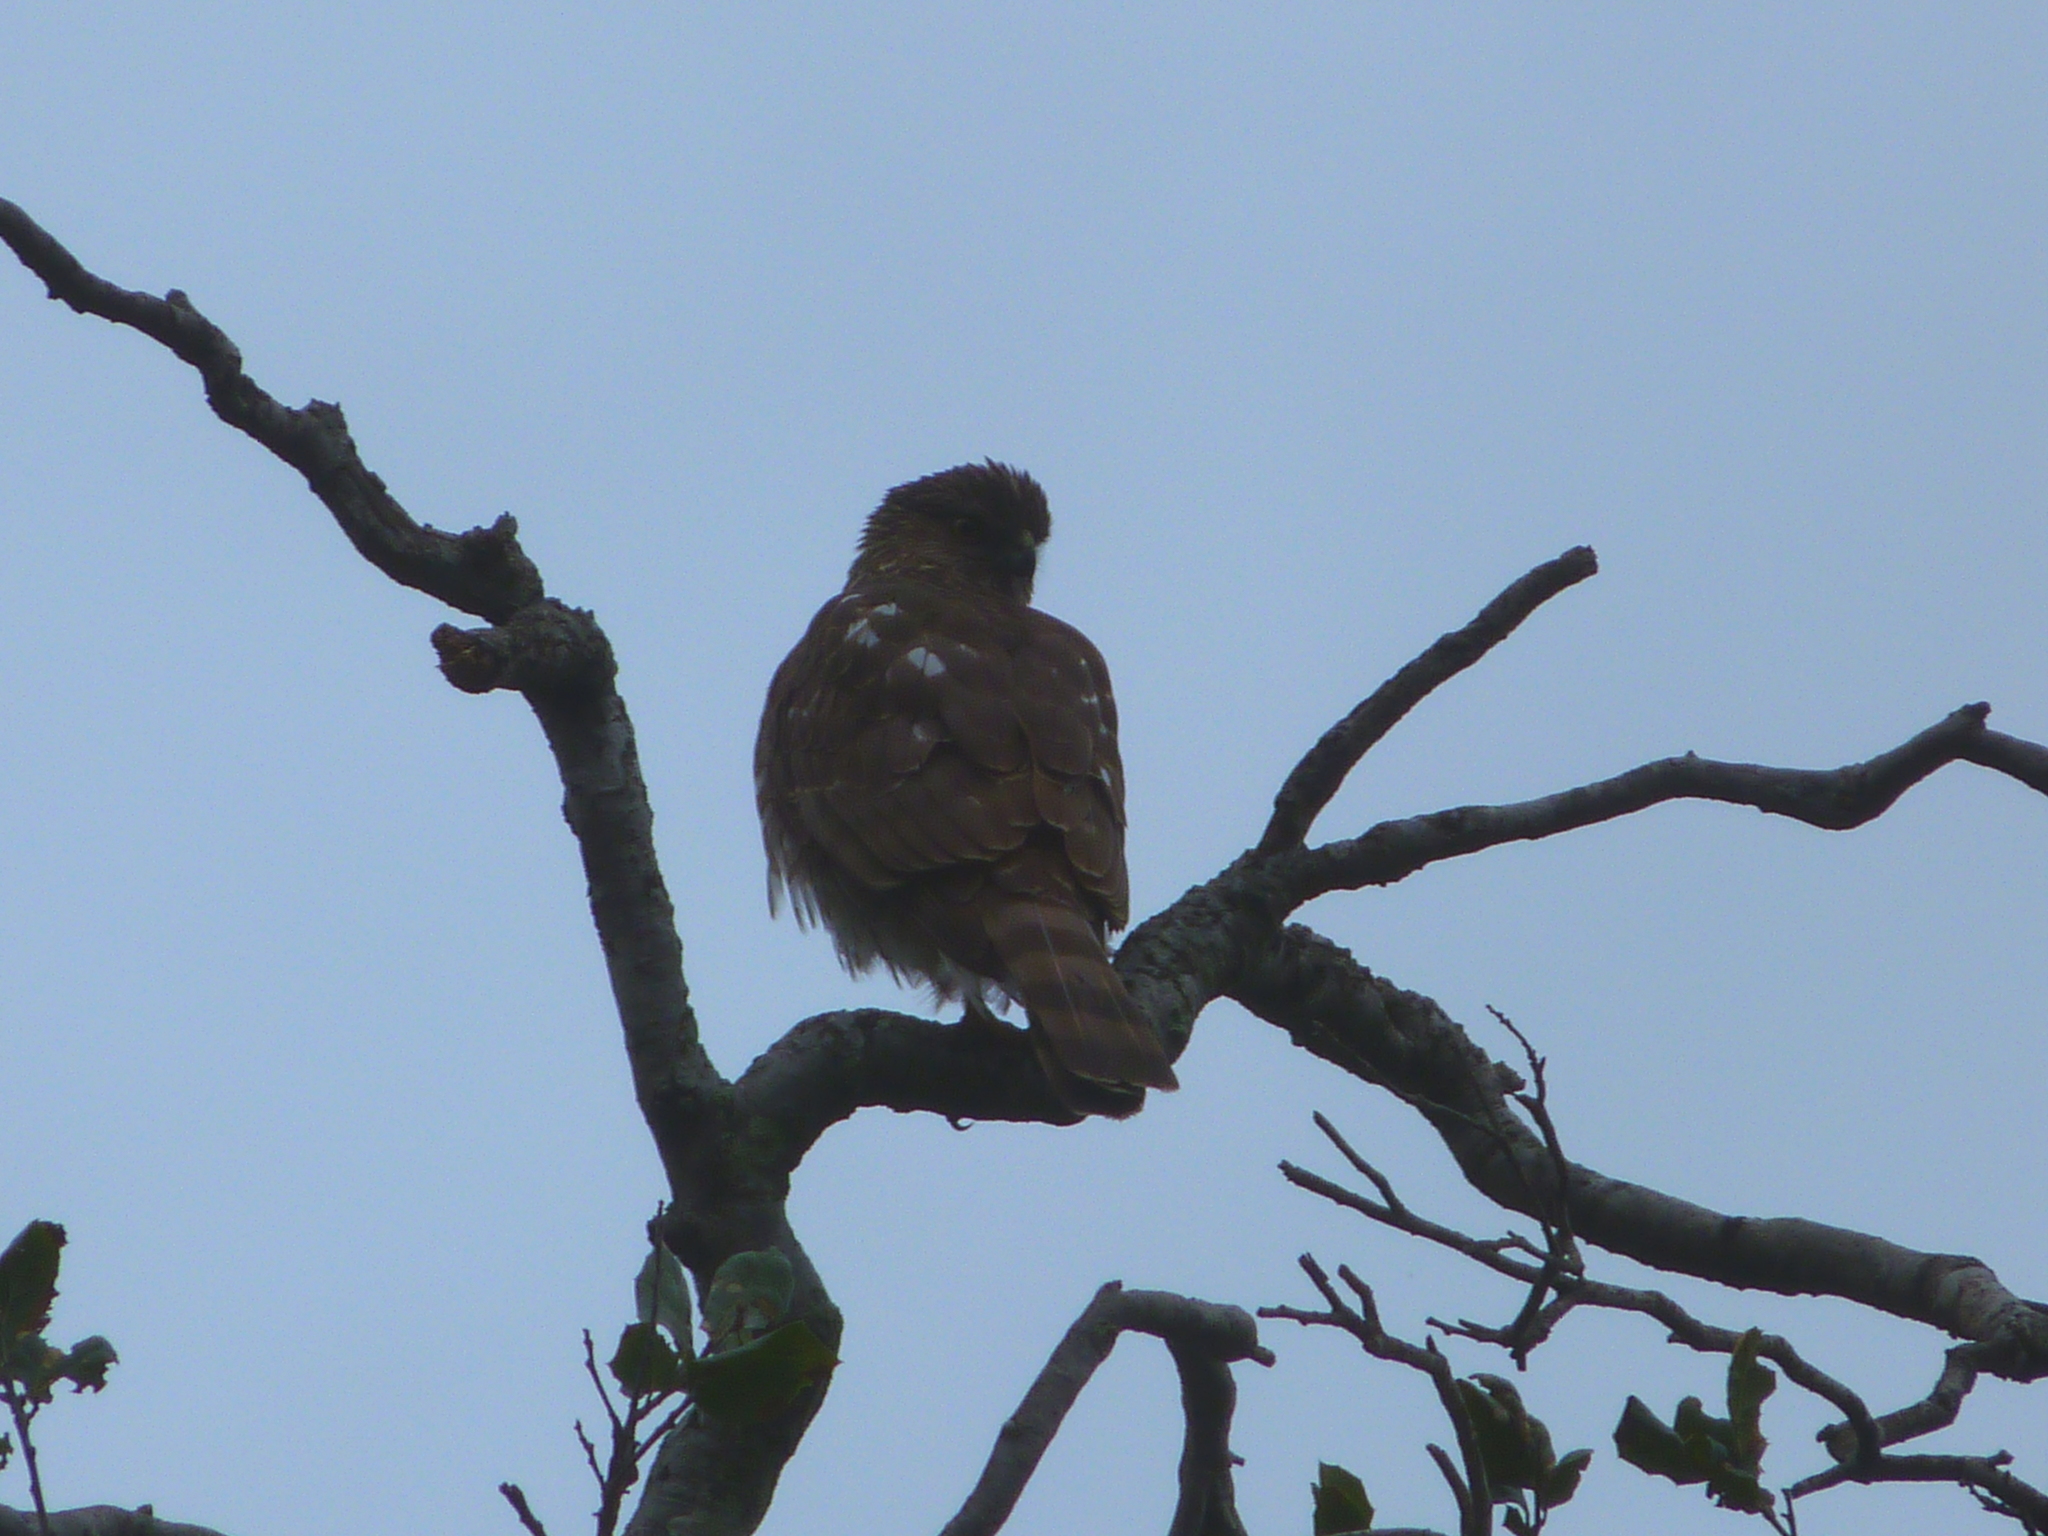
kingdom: Animalia
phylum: Chordata
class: Aves
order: Accipitriformes
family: Accipitridae
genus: Accipiter
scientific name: Accipiter striatus
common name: Sharp-shinned hawk
